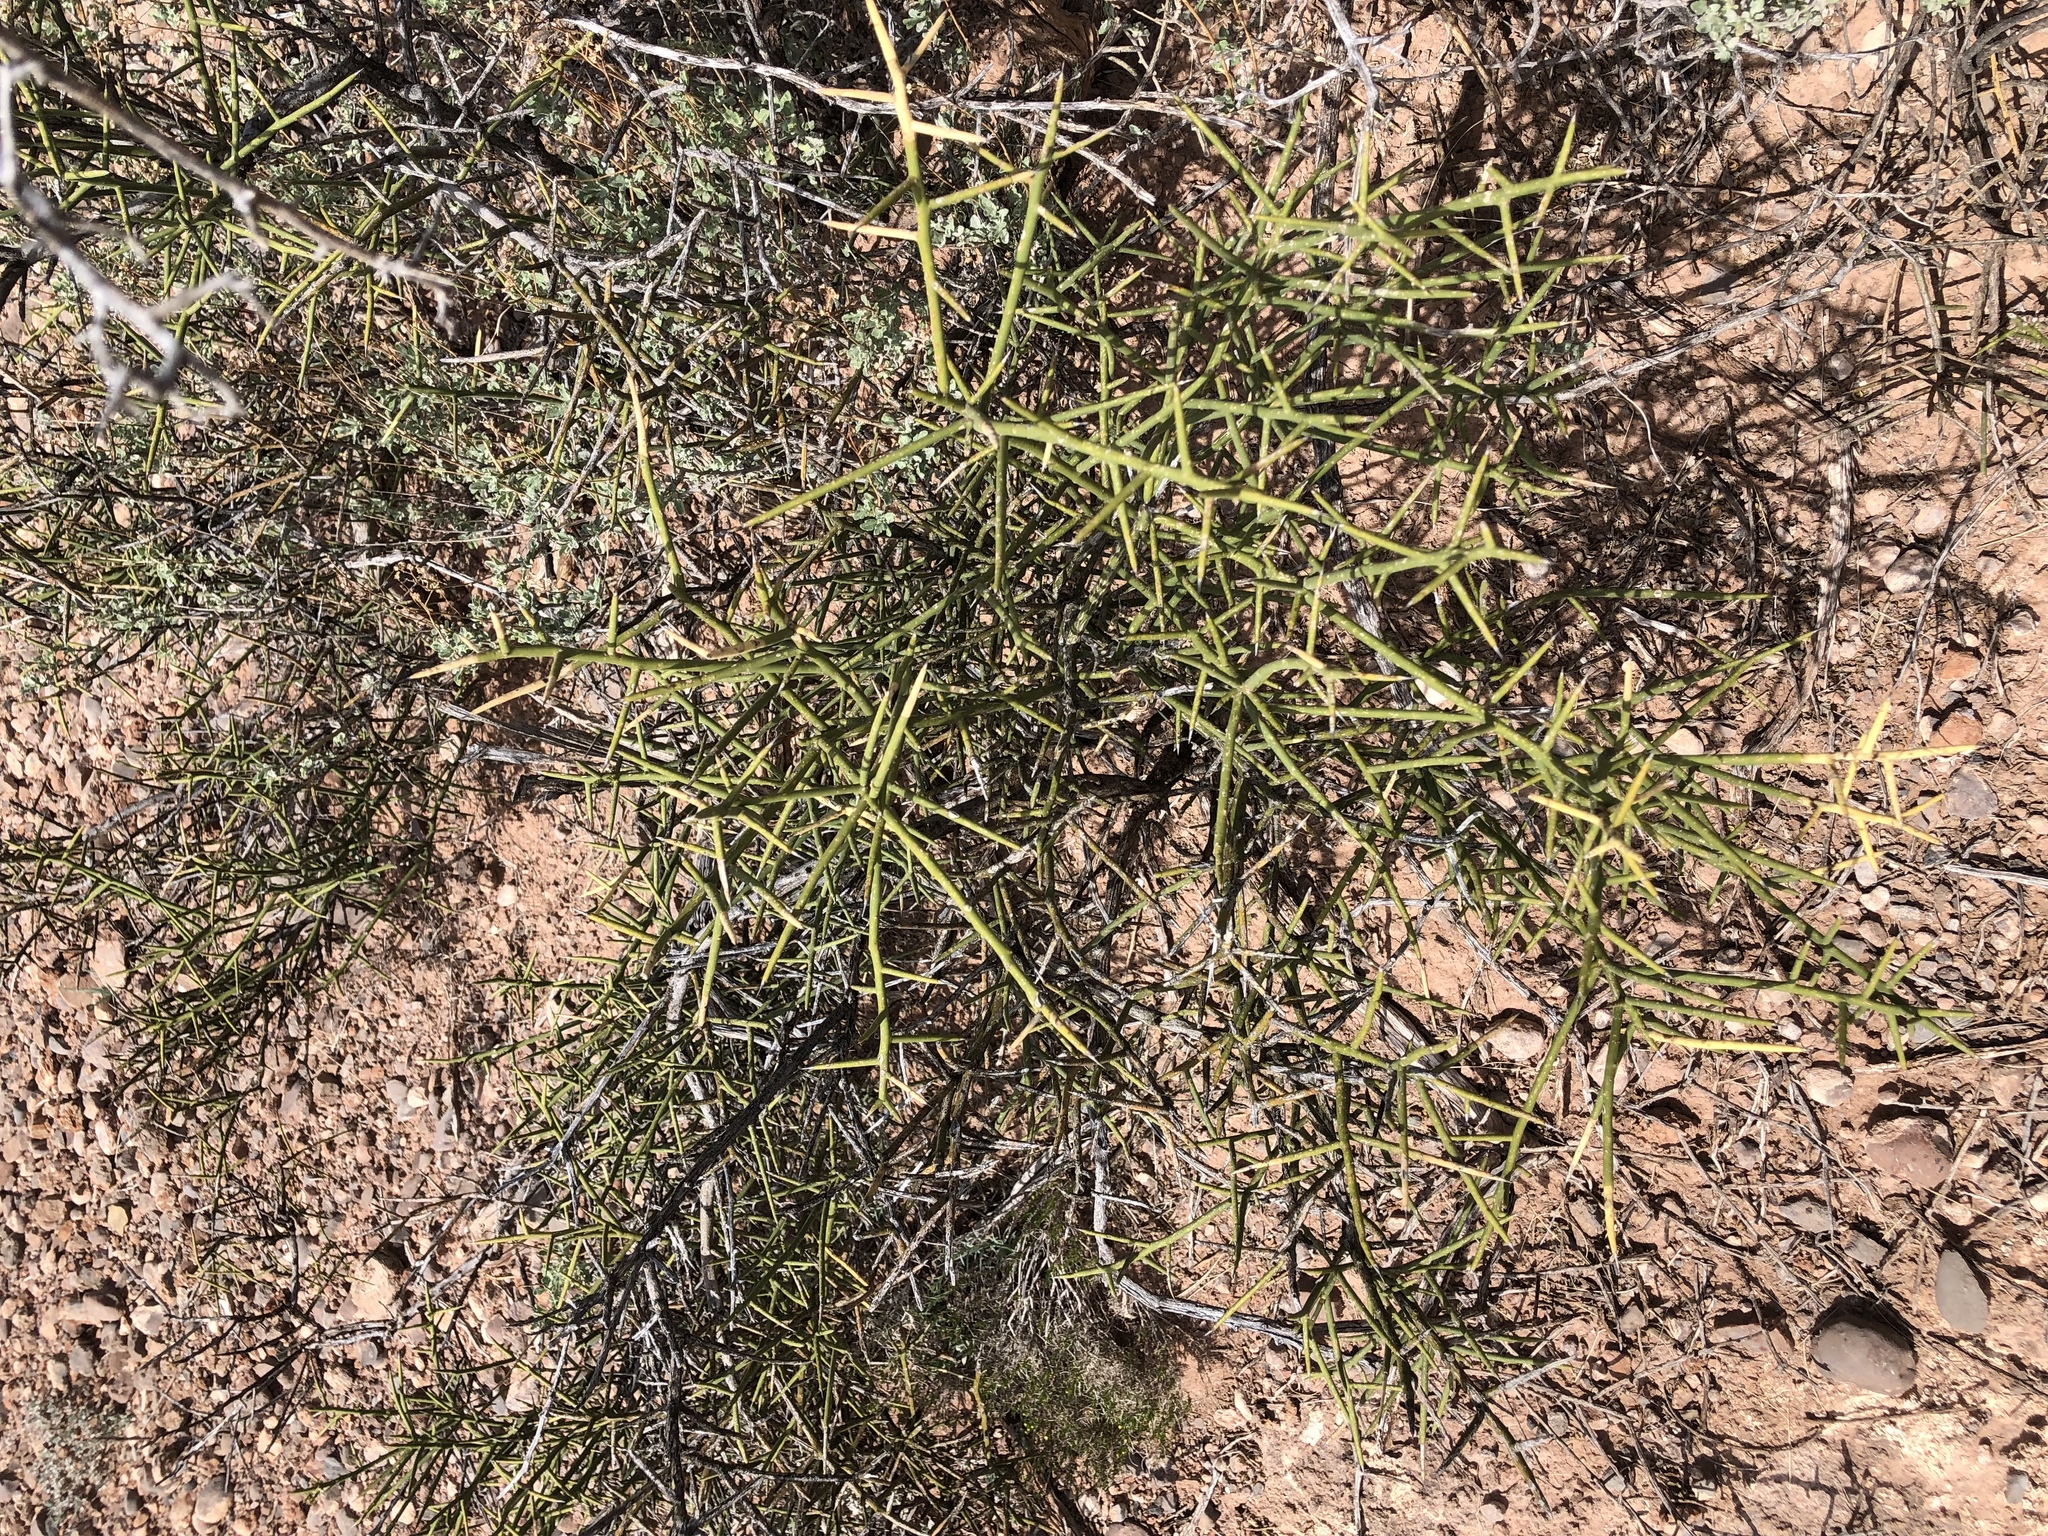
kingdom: Plantae
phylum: Tracheophyta
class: Magnoliopsida
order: Brassicales
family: Koeberliniaceae
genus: Koeberlinia
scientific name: Koeberlinia spinosa
